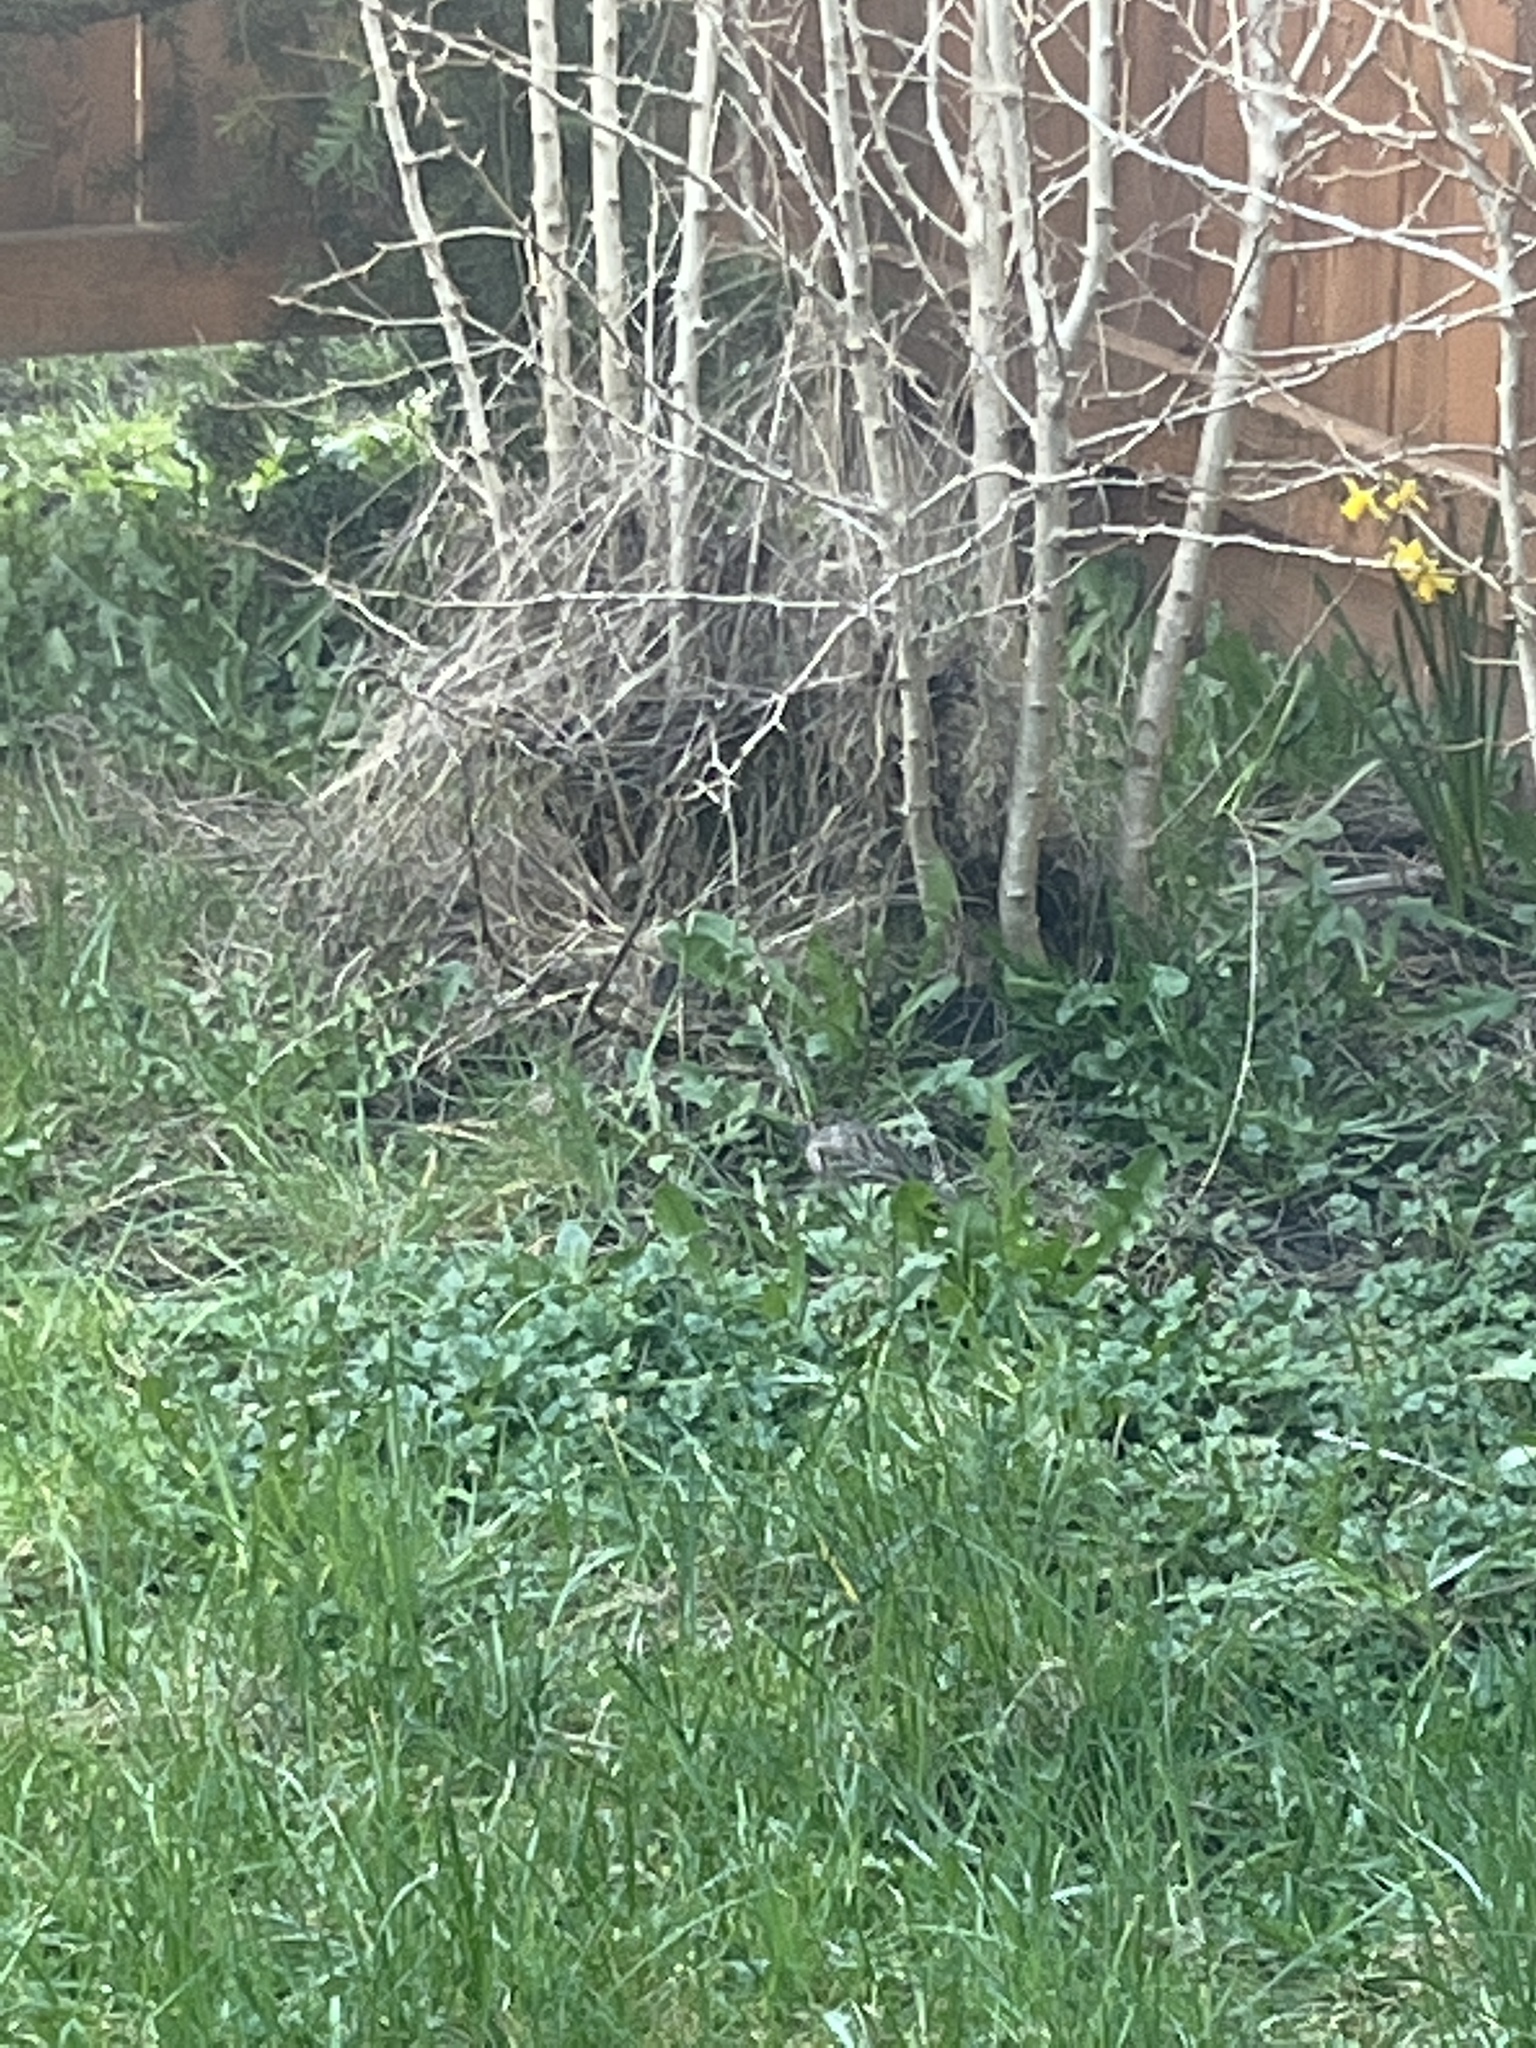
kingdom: Animalia
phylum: Chordata
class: Aves
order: Passeriformes
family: Passerellidae
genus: Zonotrichia
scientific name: Zonotrichia atricapilla
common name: Golden-crowned sparrow
